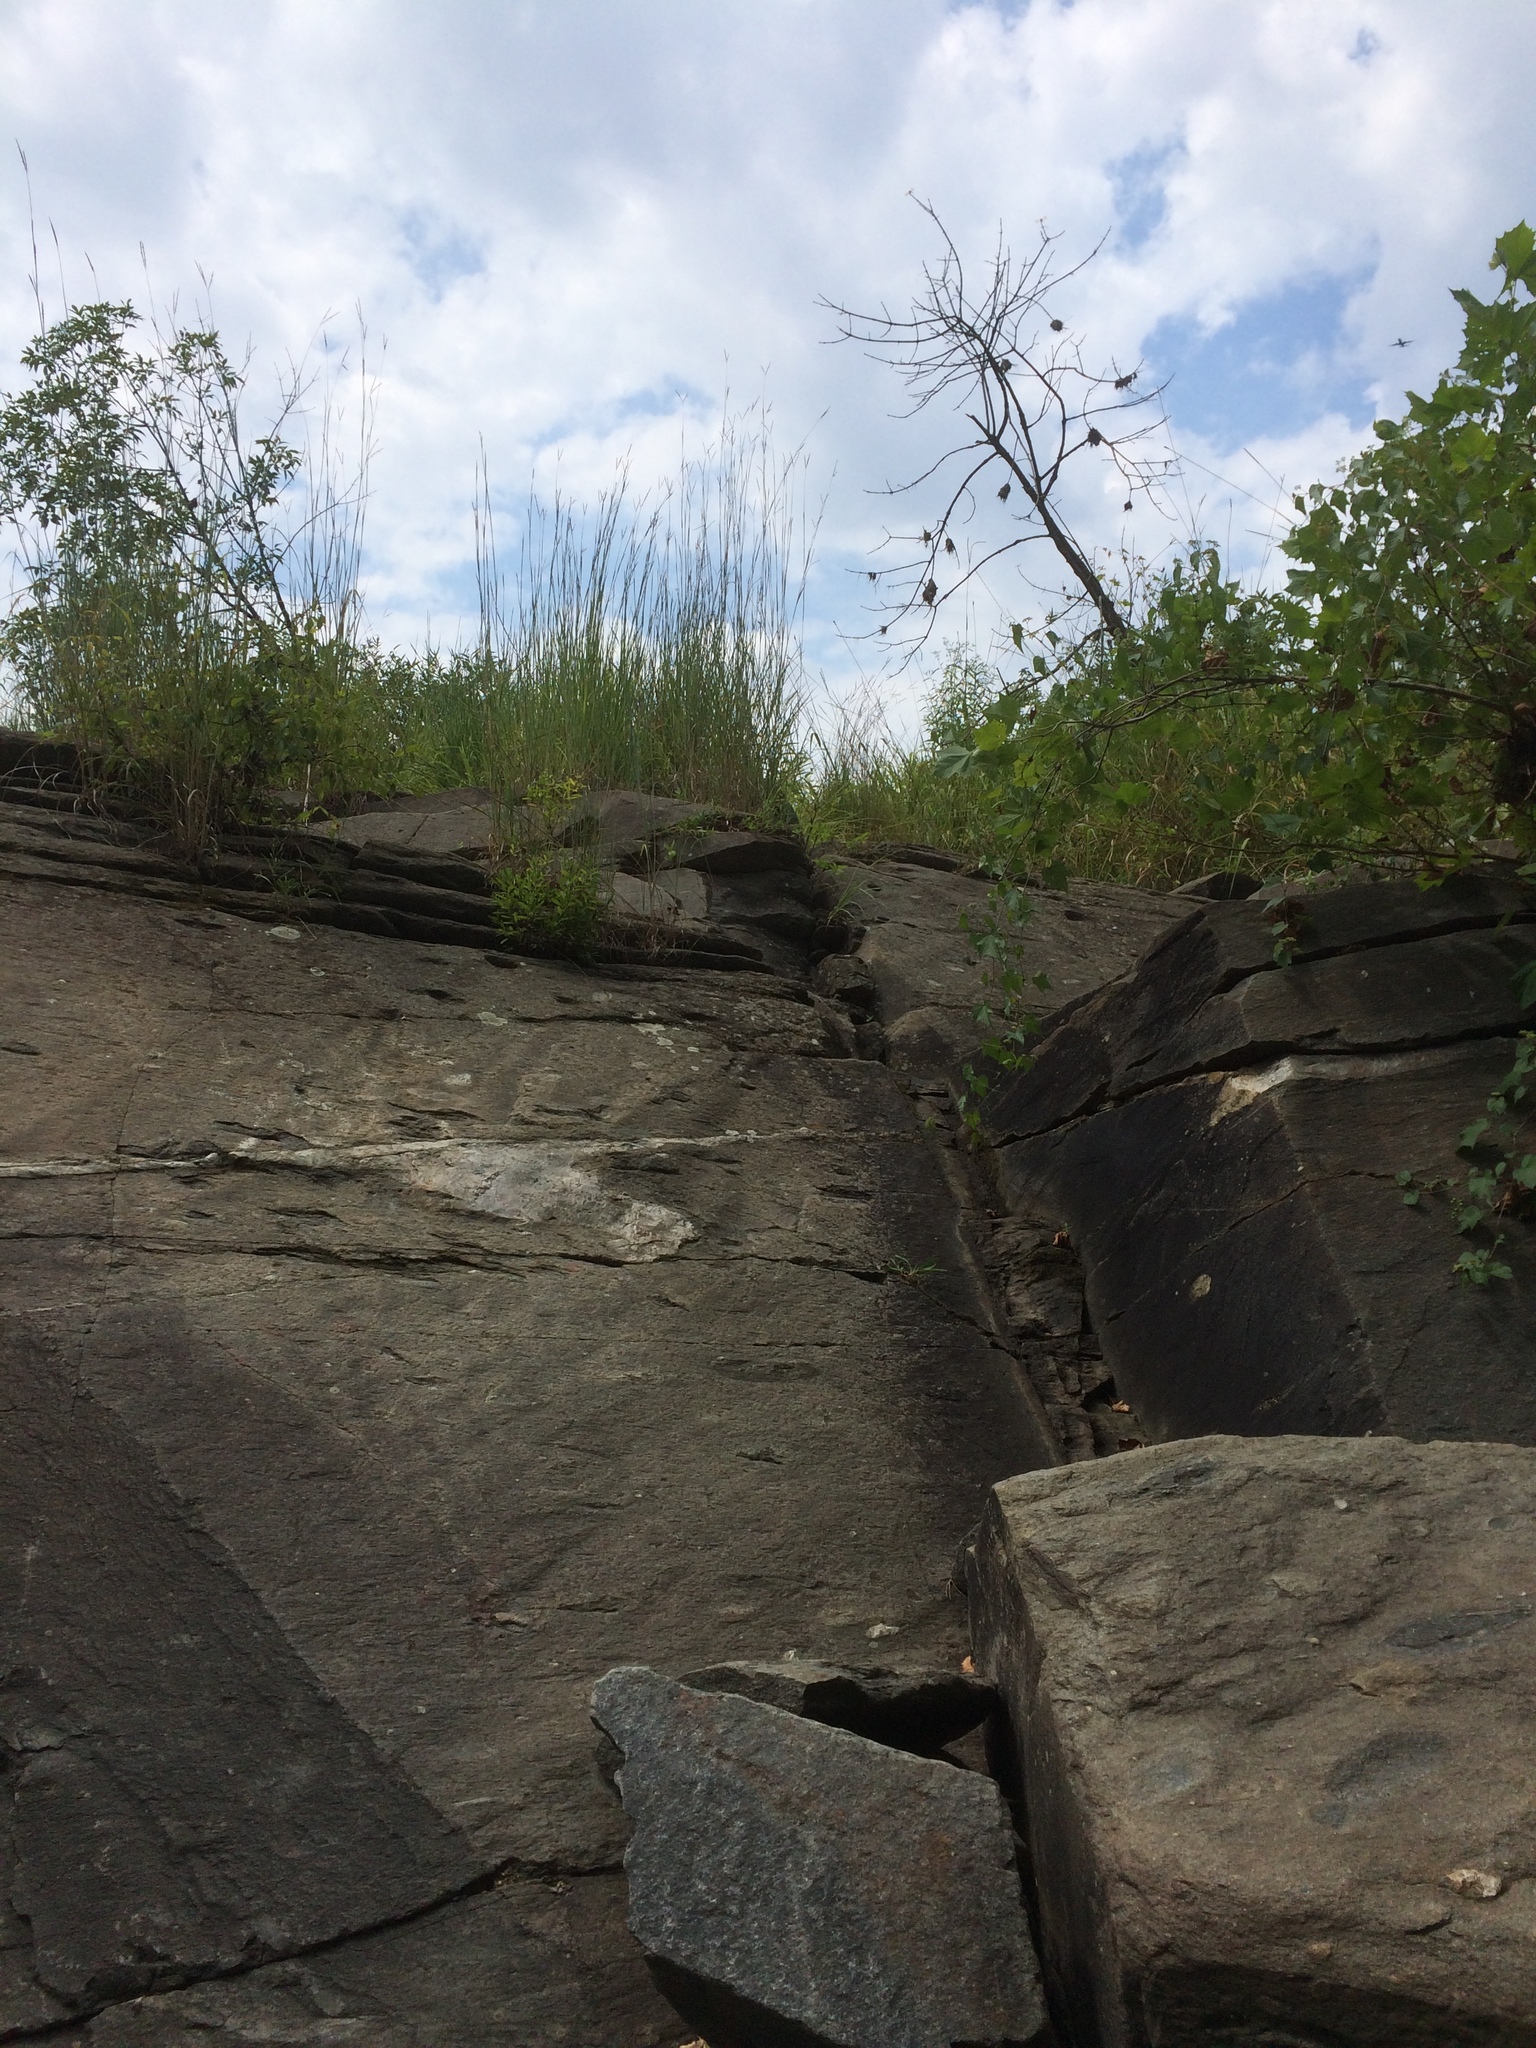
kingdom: Plantae
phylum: Tracheophyta
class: Liliopsida
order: Poales
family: Poaceae
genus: Andropogon
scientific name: Andropogon gerardi
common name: Big bluestem
